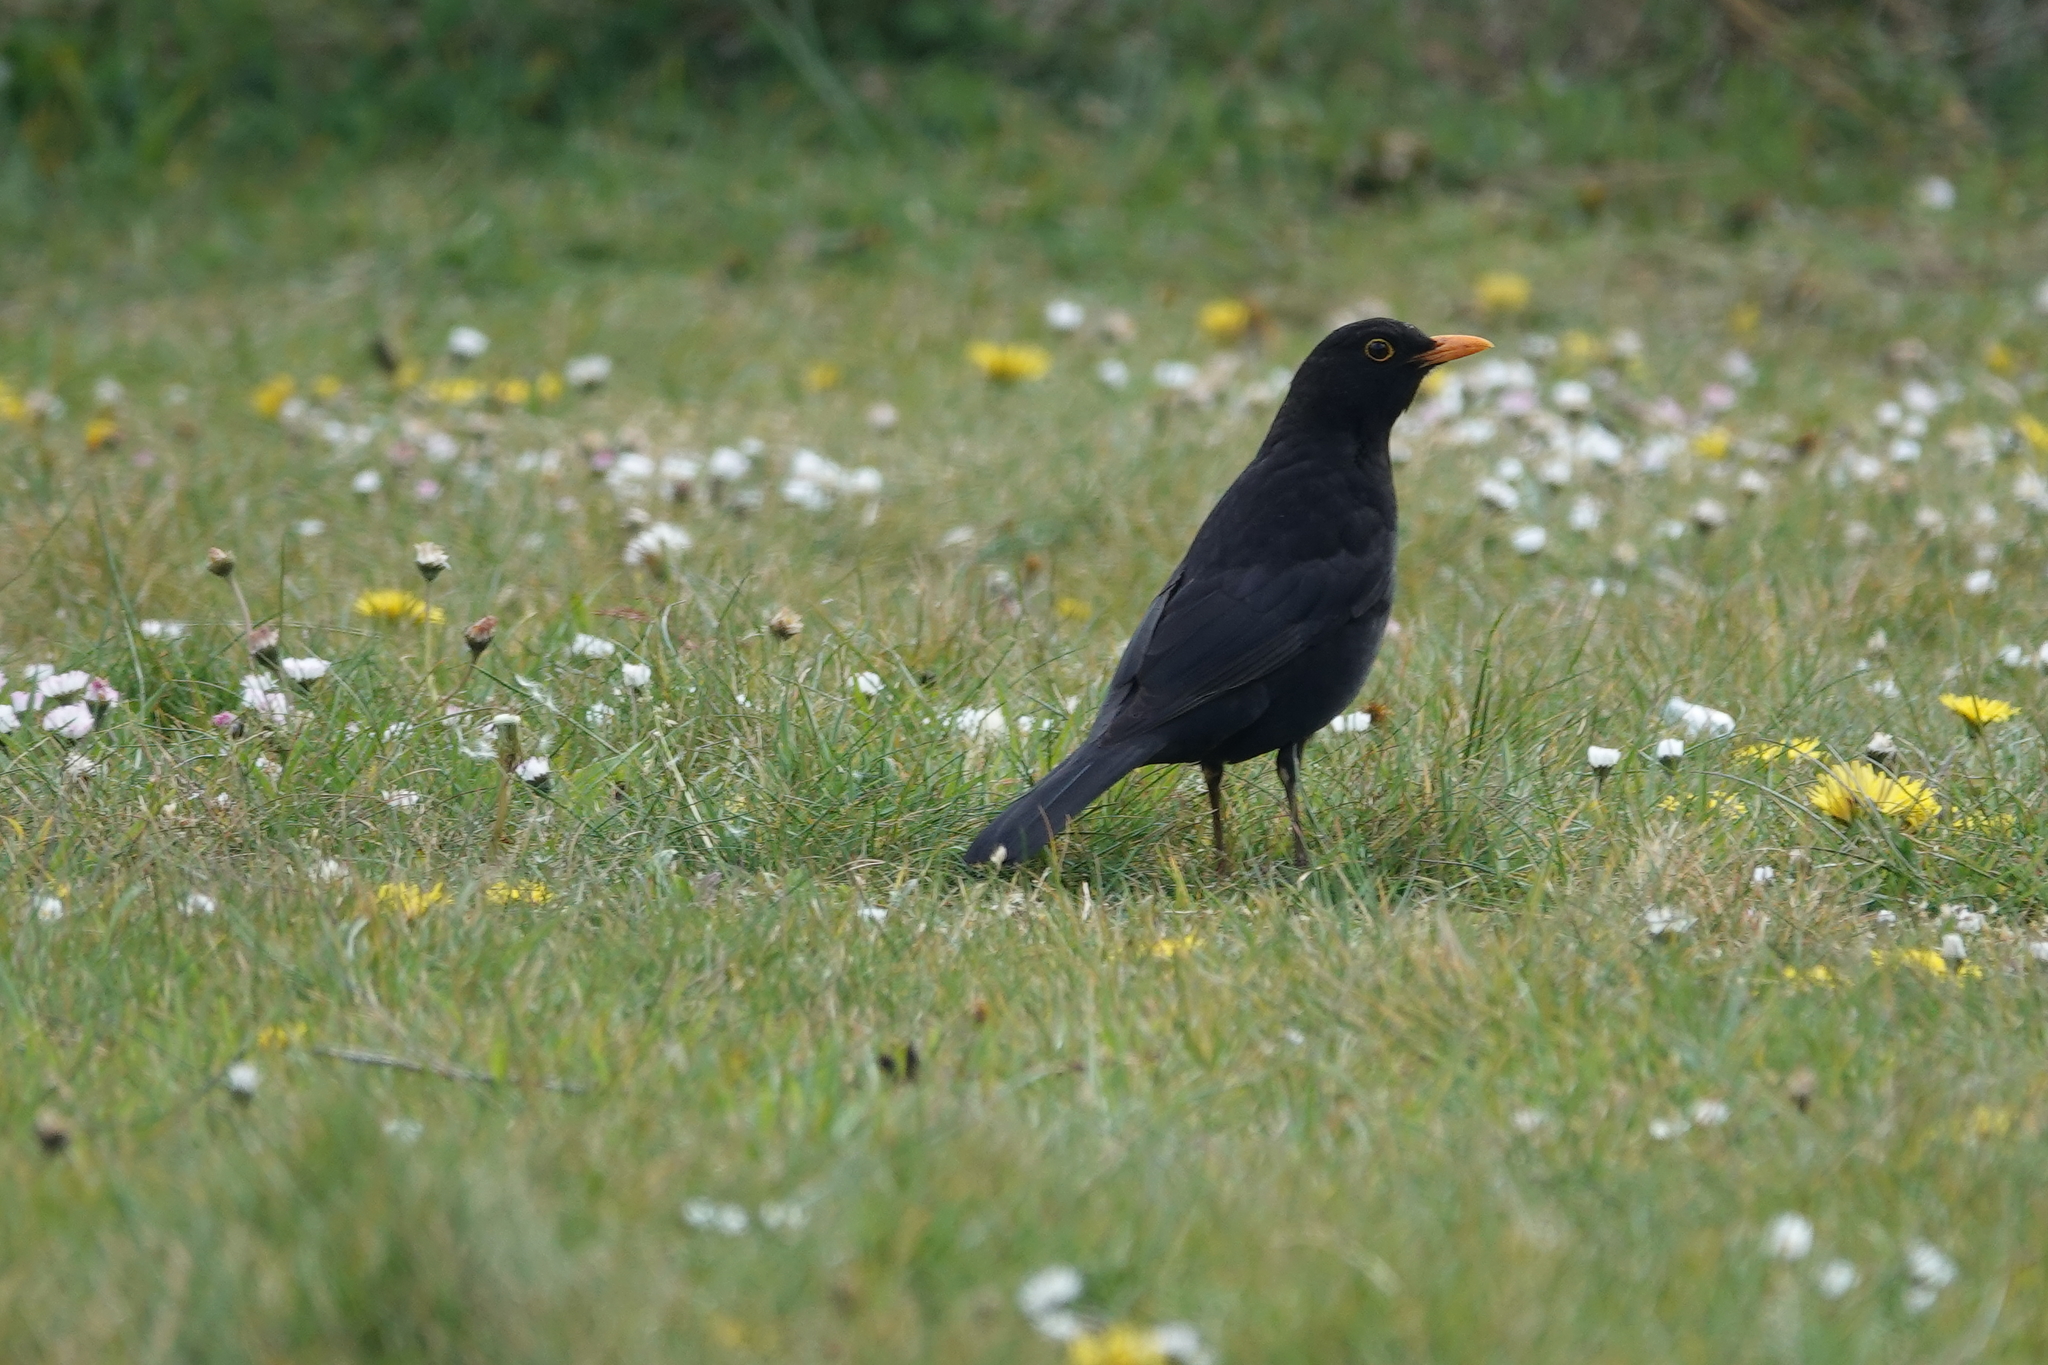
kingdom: Animalia
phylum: Chordata
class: Aves
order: Passeriformes
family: Turdidae
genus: Turdus
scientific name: Turdus merula
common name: Common blackbird
